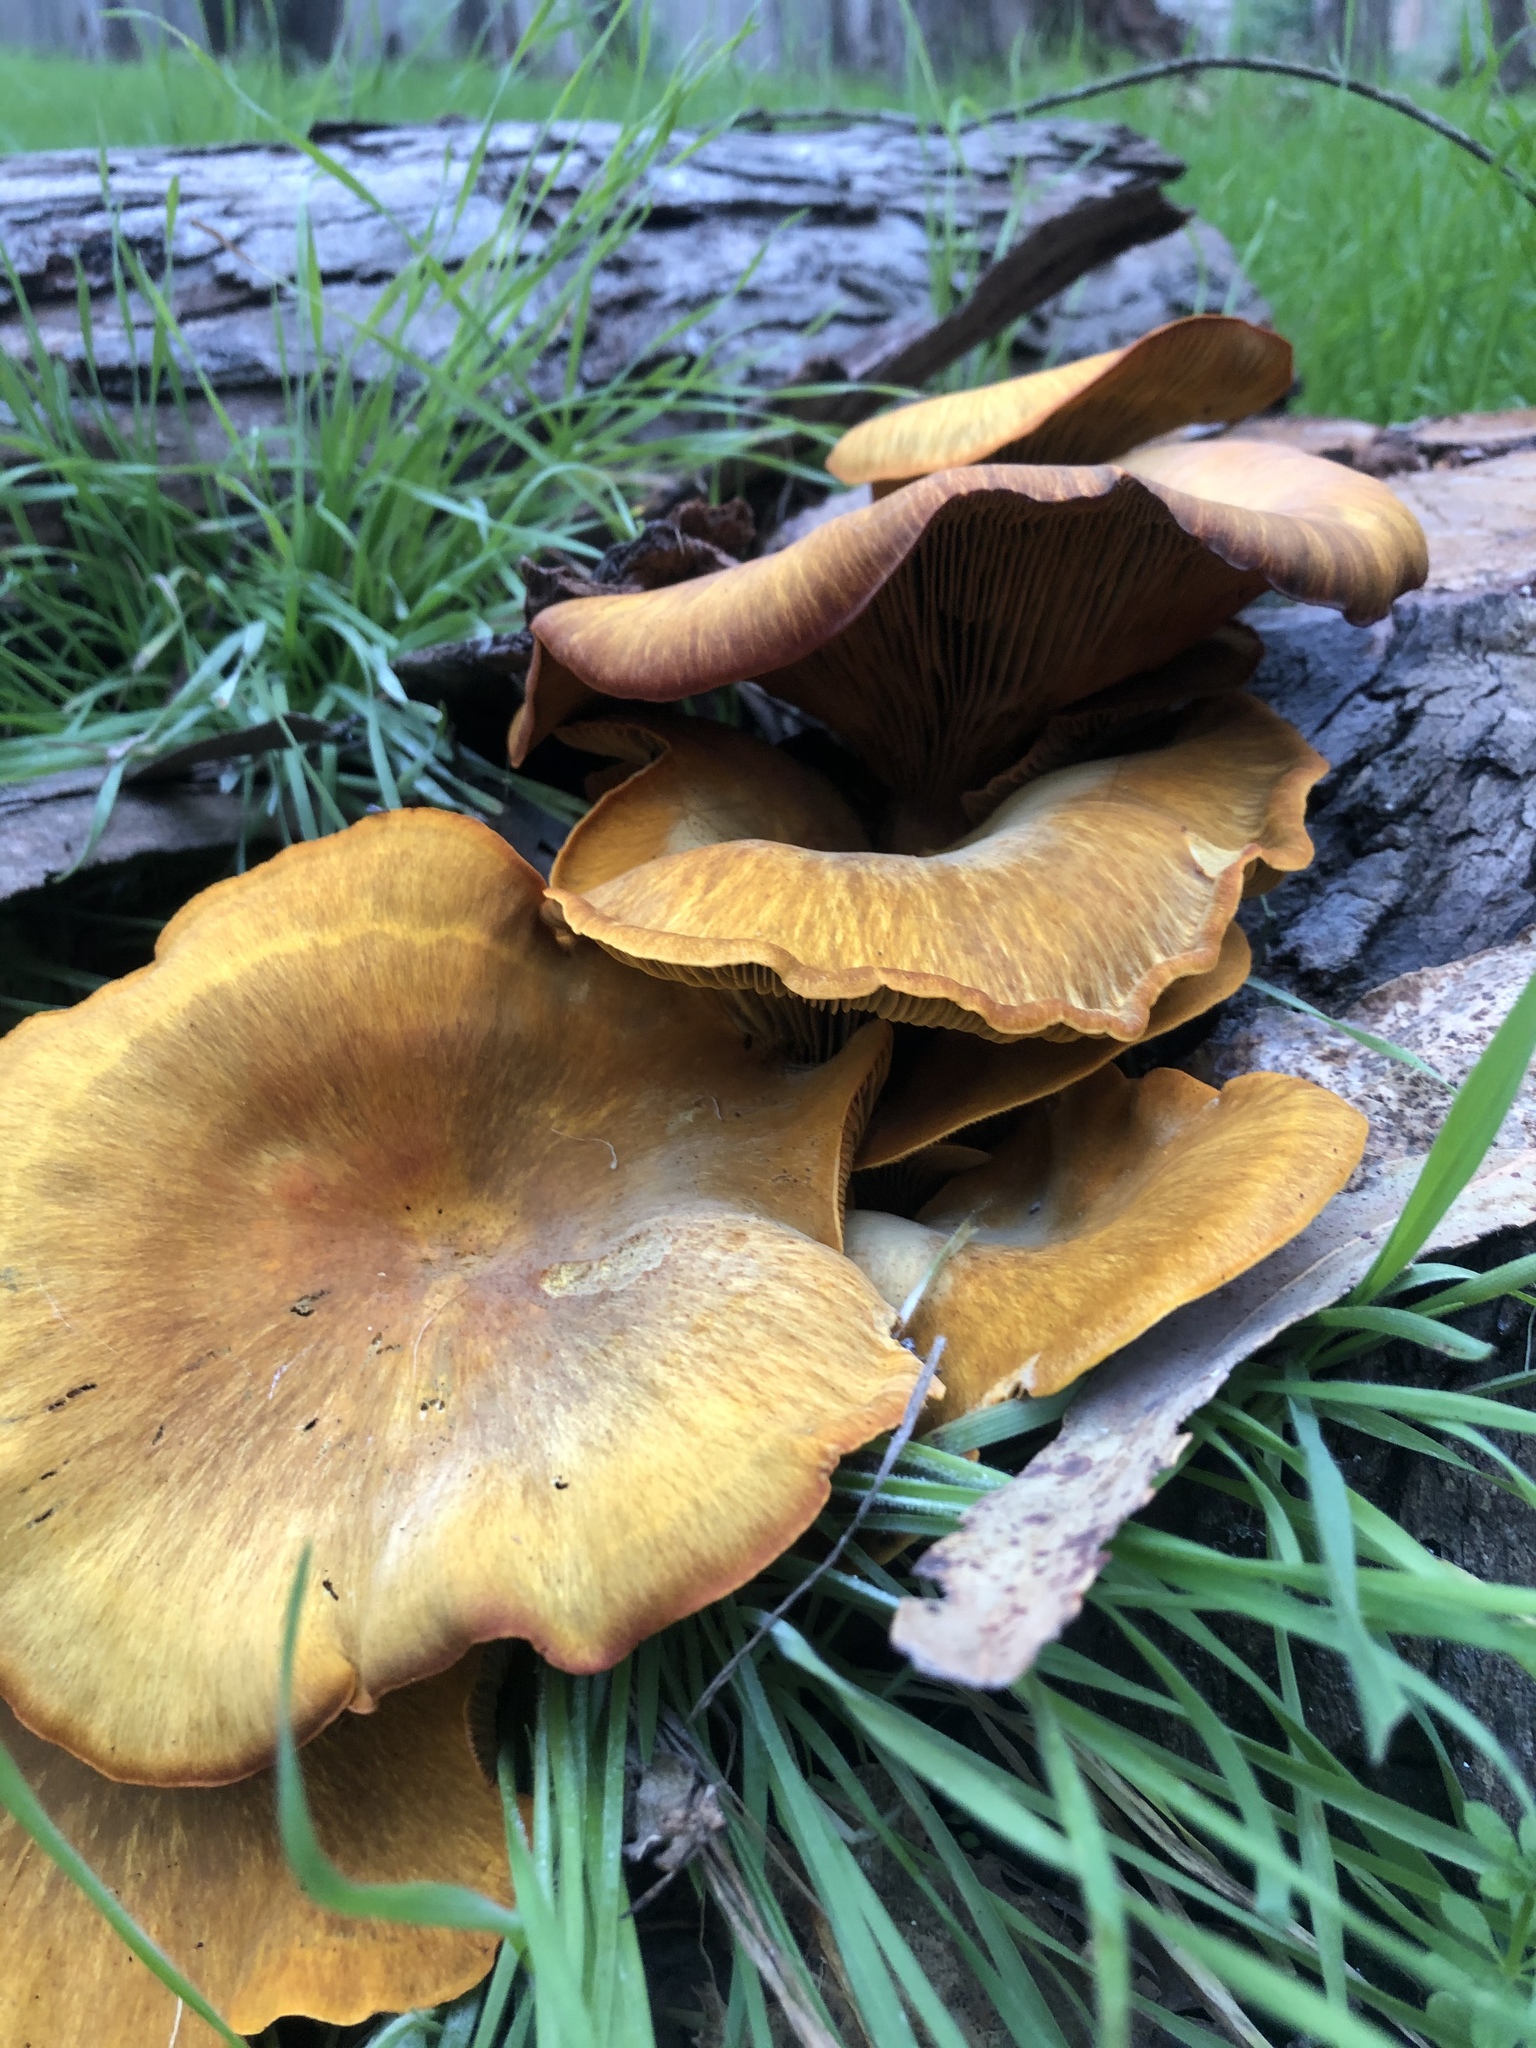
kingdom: Fungi
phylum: Basidiomycota
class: Agaricomycetes
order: Agaricales
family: Omphalotaceae
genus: Omphalotus
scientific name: Omphalotus olivascens
